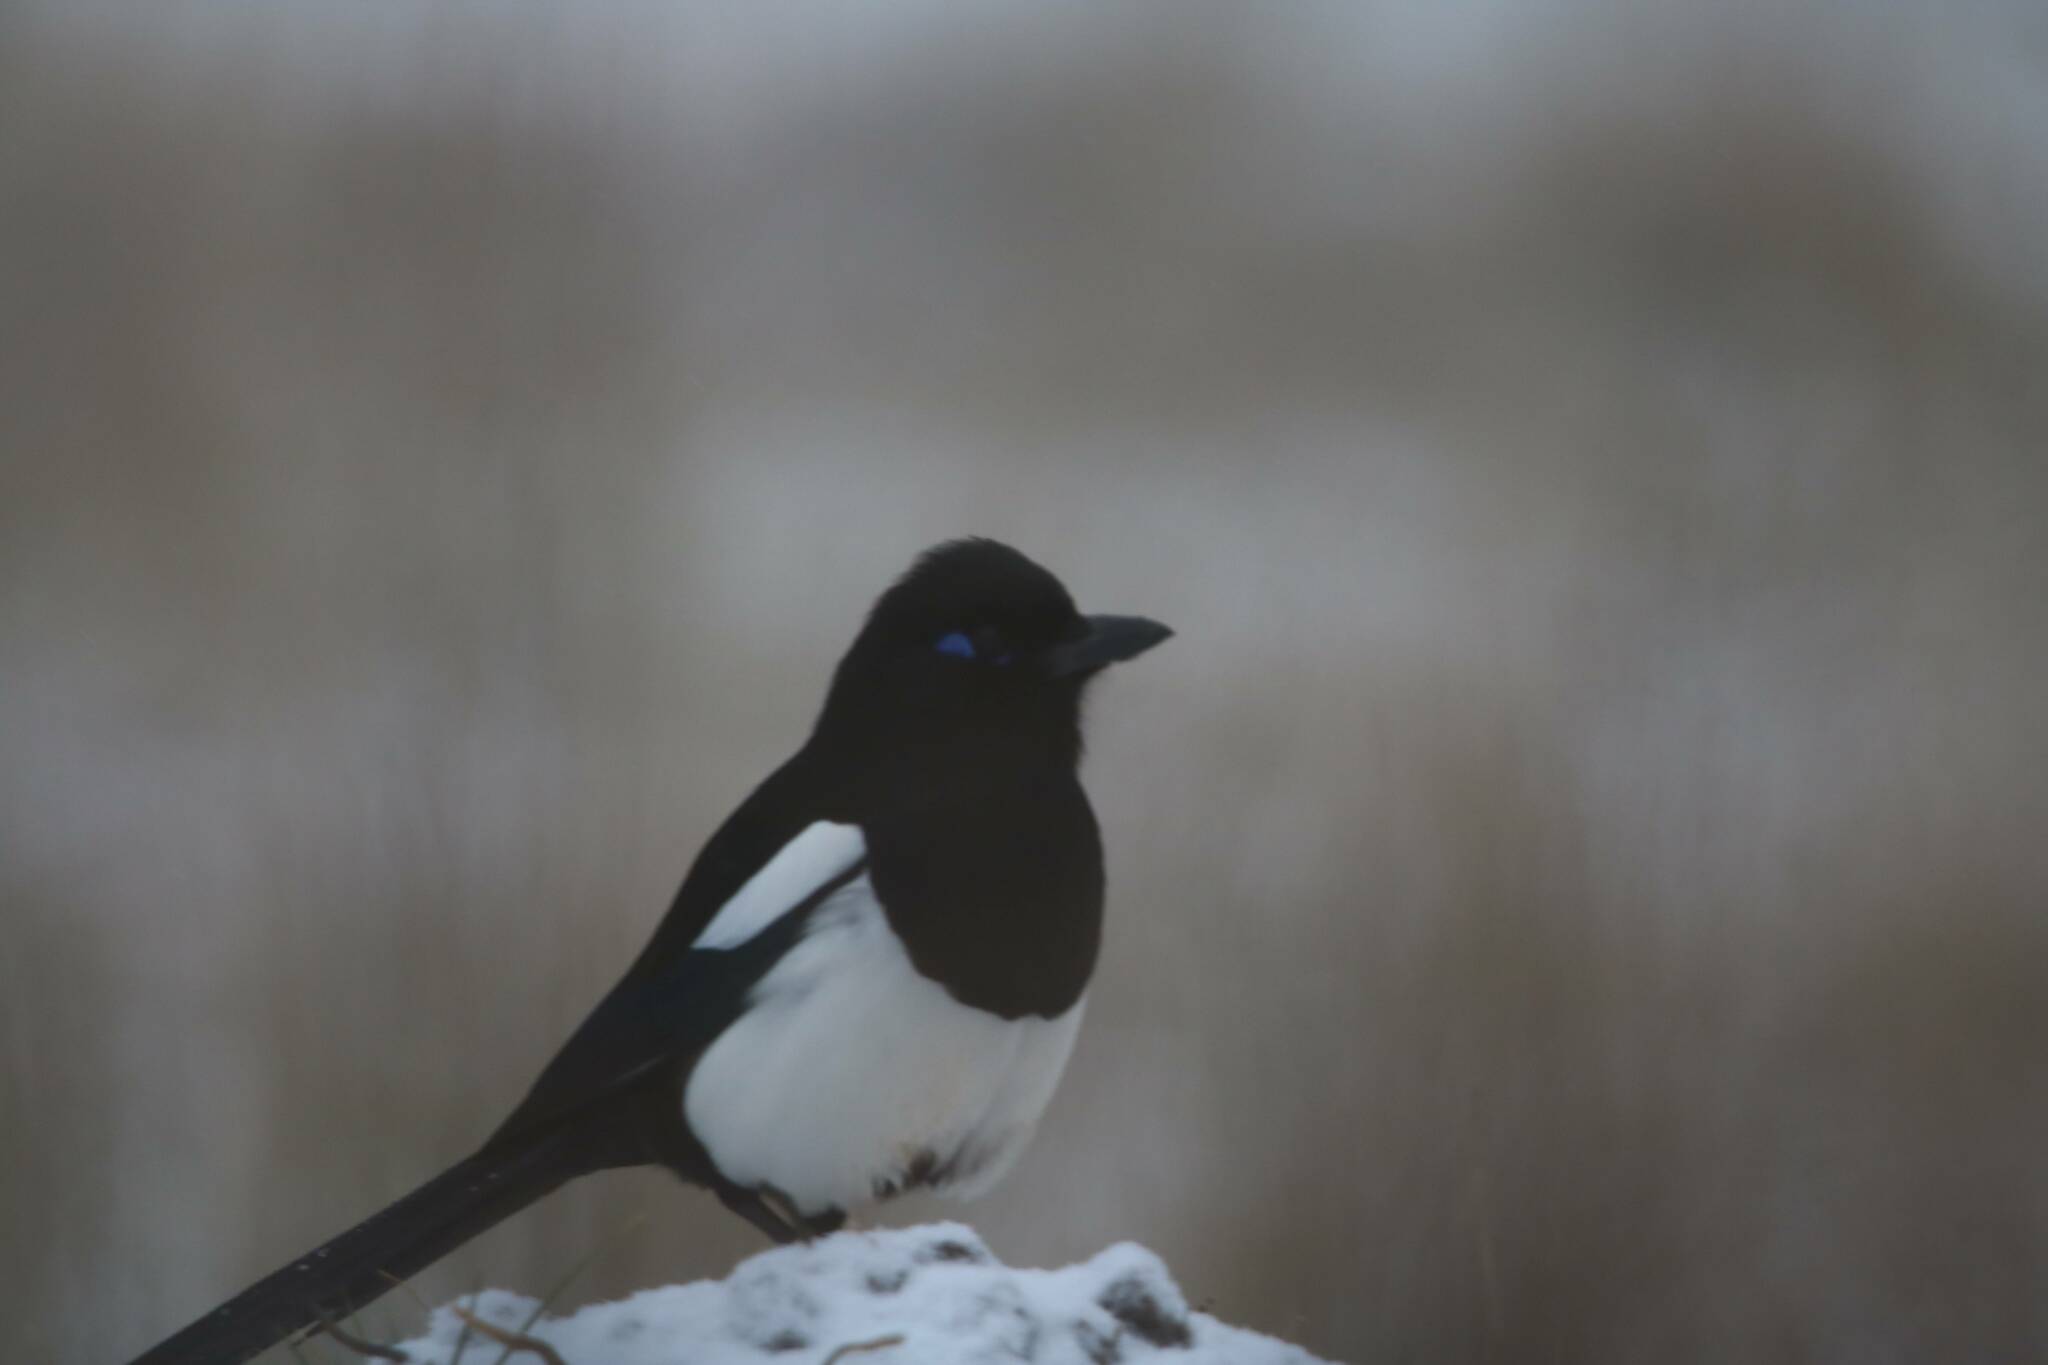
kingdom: Animalia
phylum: Chordata
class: Aves
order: Passeriformes
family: Corvidae
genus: Pica
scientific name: Pica mauritanica
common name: Maghreb magpie
